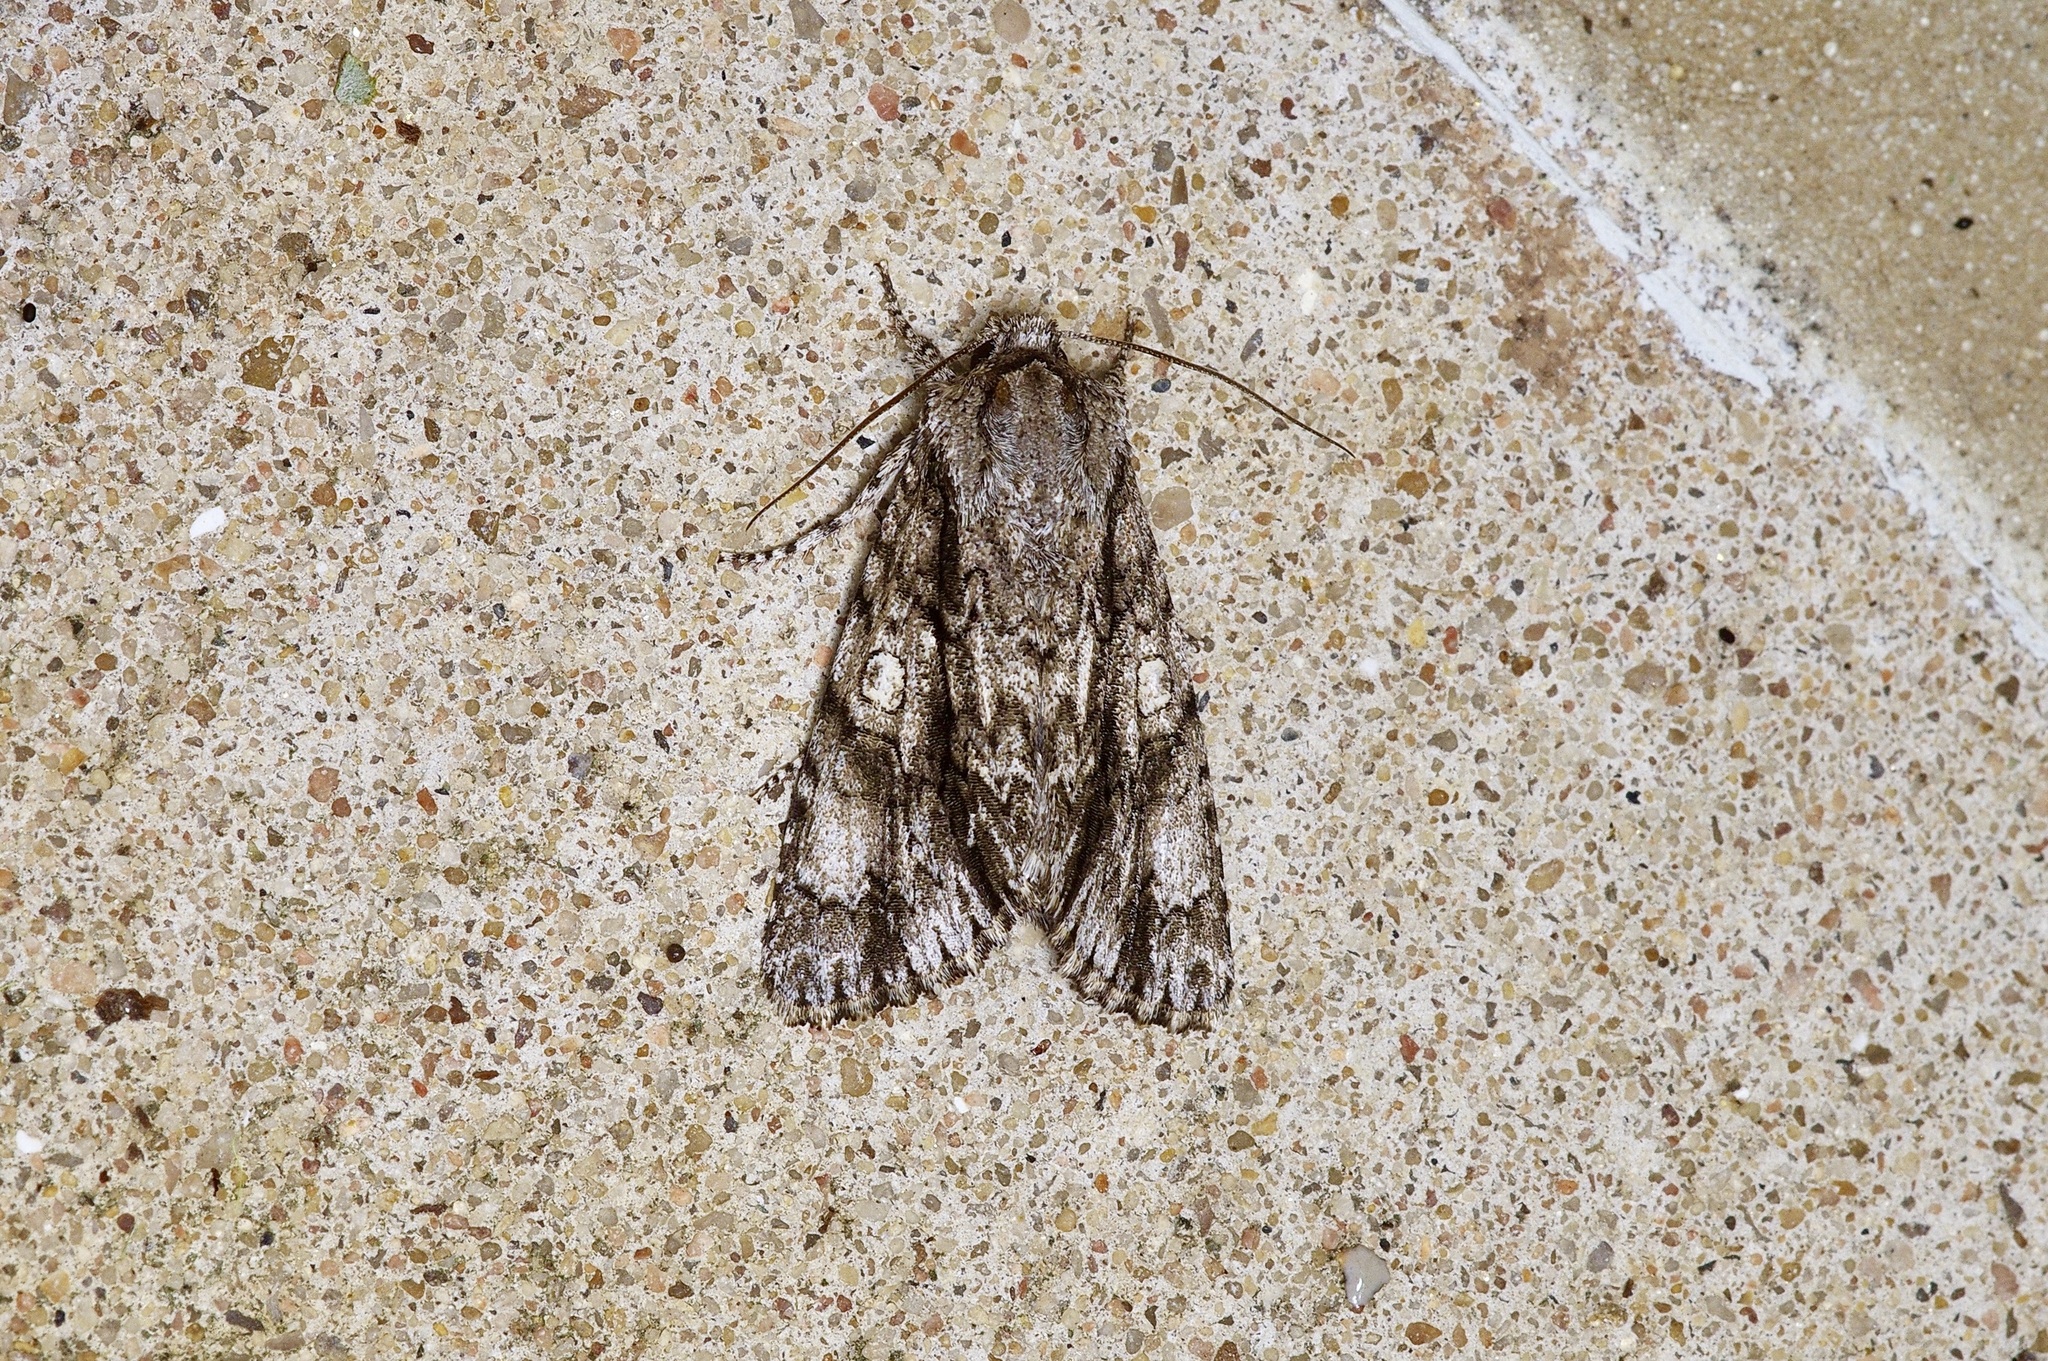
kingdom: Animalia
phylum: Arthropoda
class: Insecta
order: Lepidoptera
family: Noctuidae
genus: Acronicta
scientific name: Acronicta atristrigatus
